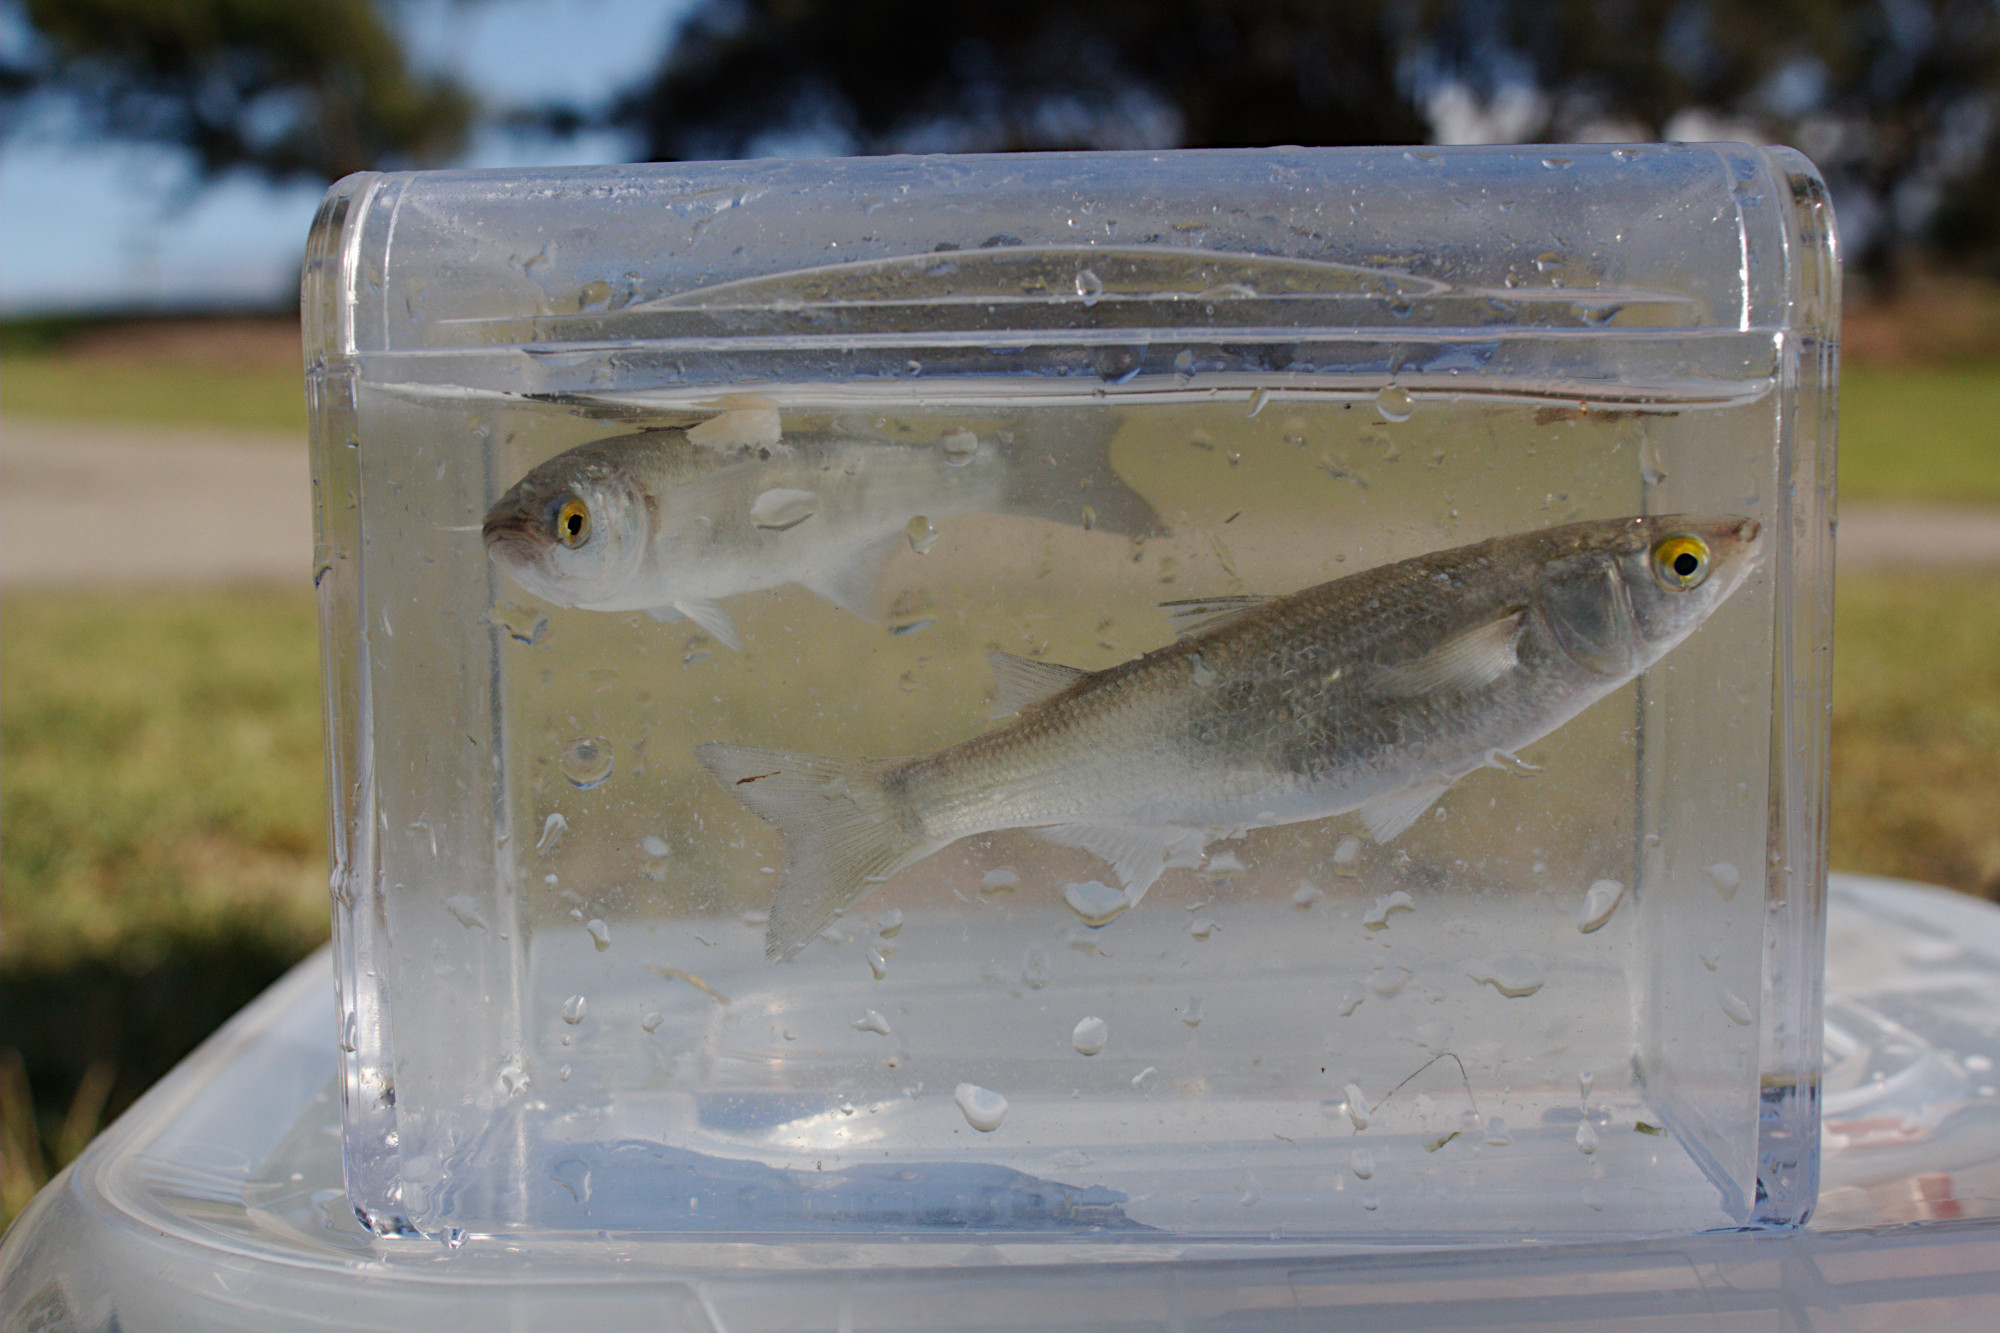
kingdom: Animalia
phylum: Chordata
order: Mugiliformes
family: Mugilidae
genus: Aldrichetta
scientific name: Aldrichetta forsteri
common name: Yellow-eye mullet
